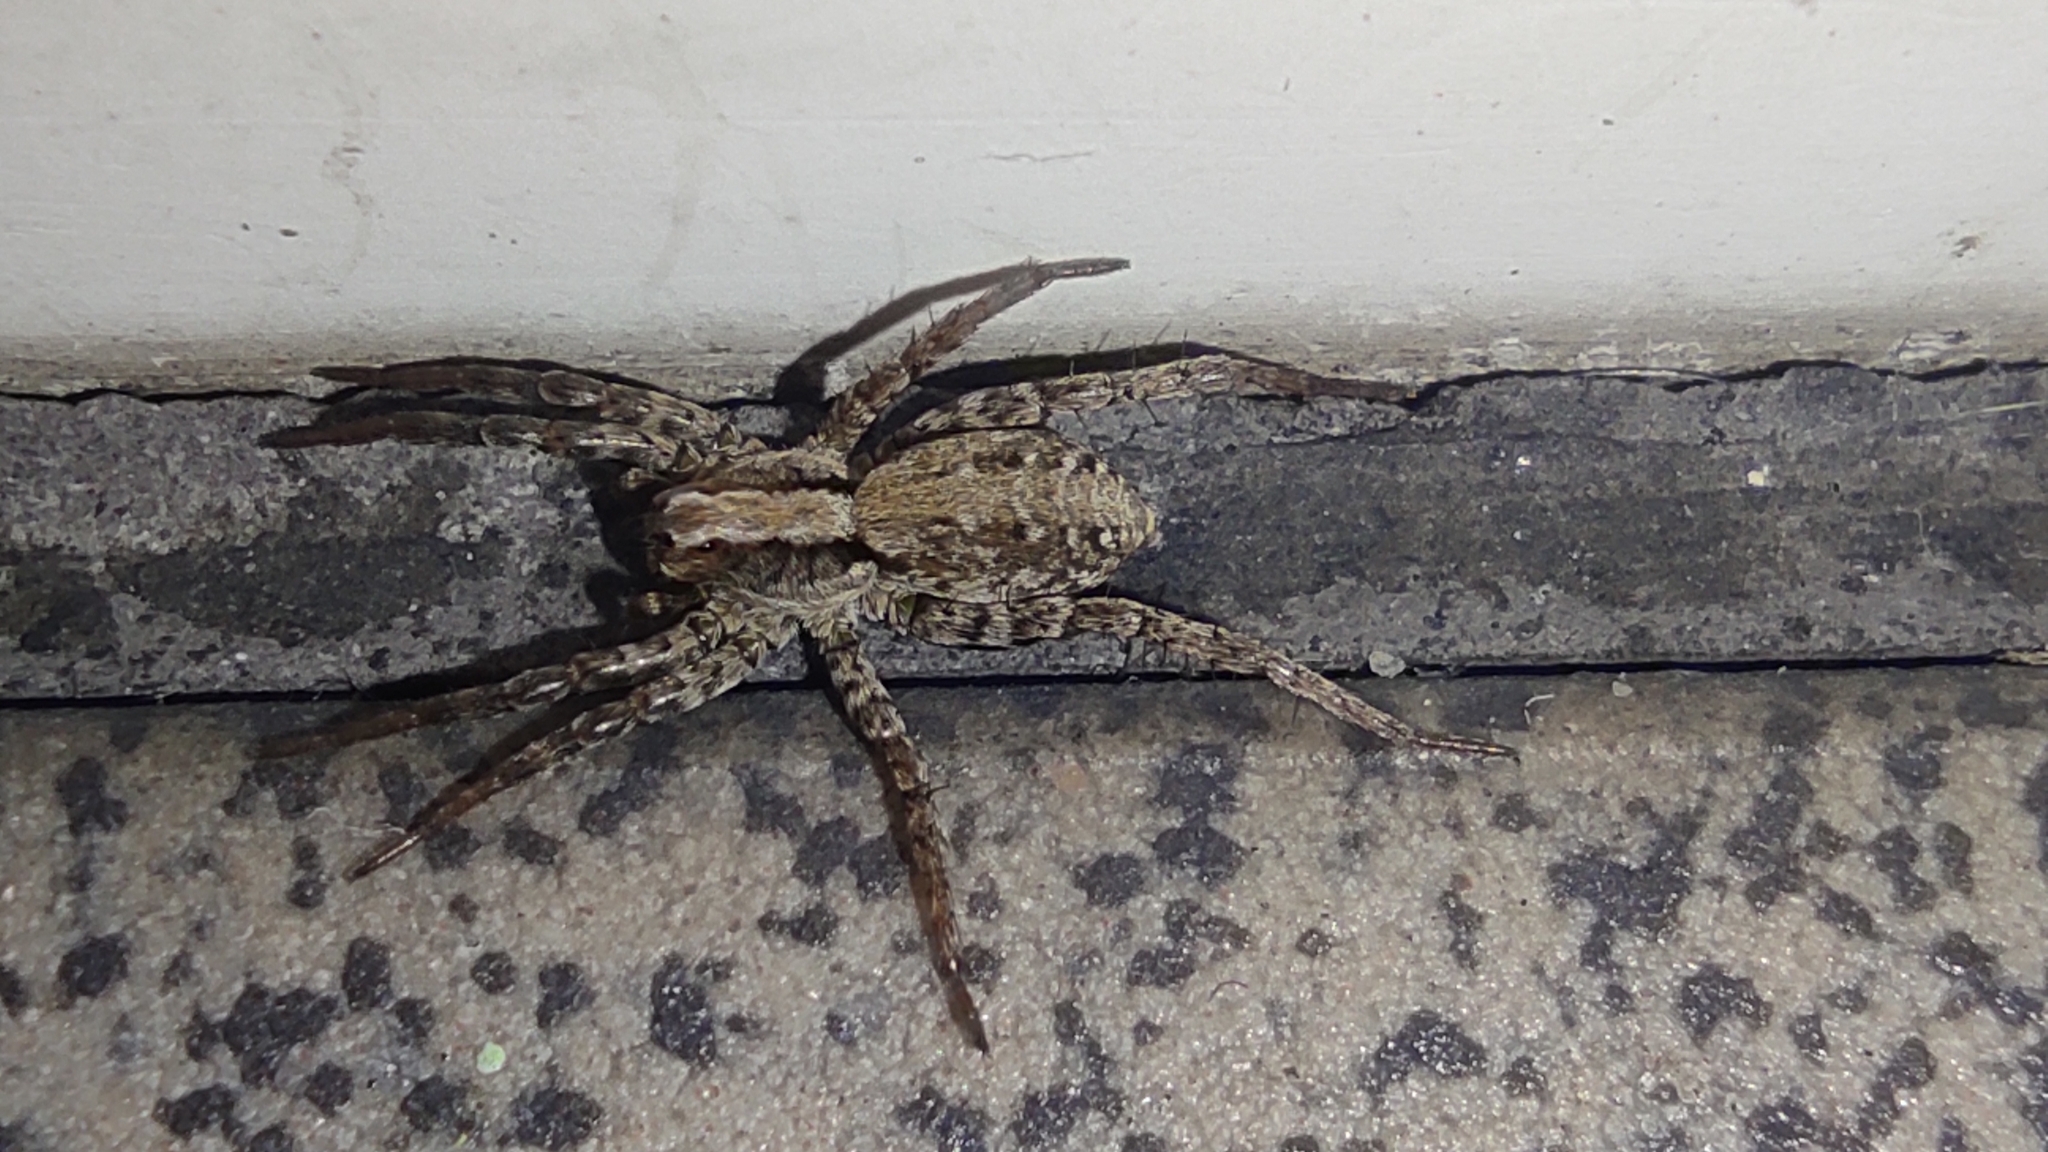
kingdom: Animalia
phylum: Arthropoda
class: Arachnida
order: Araneae
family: Lycosidae
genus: Xerolycosa
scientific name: Xerolycosa miniata
